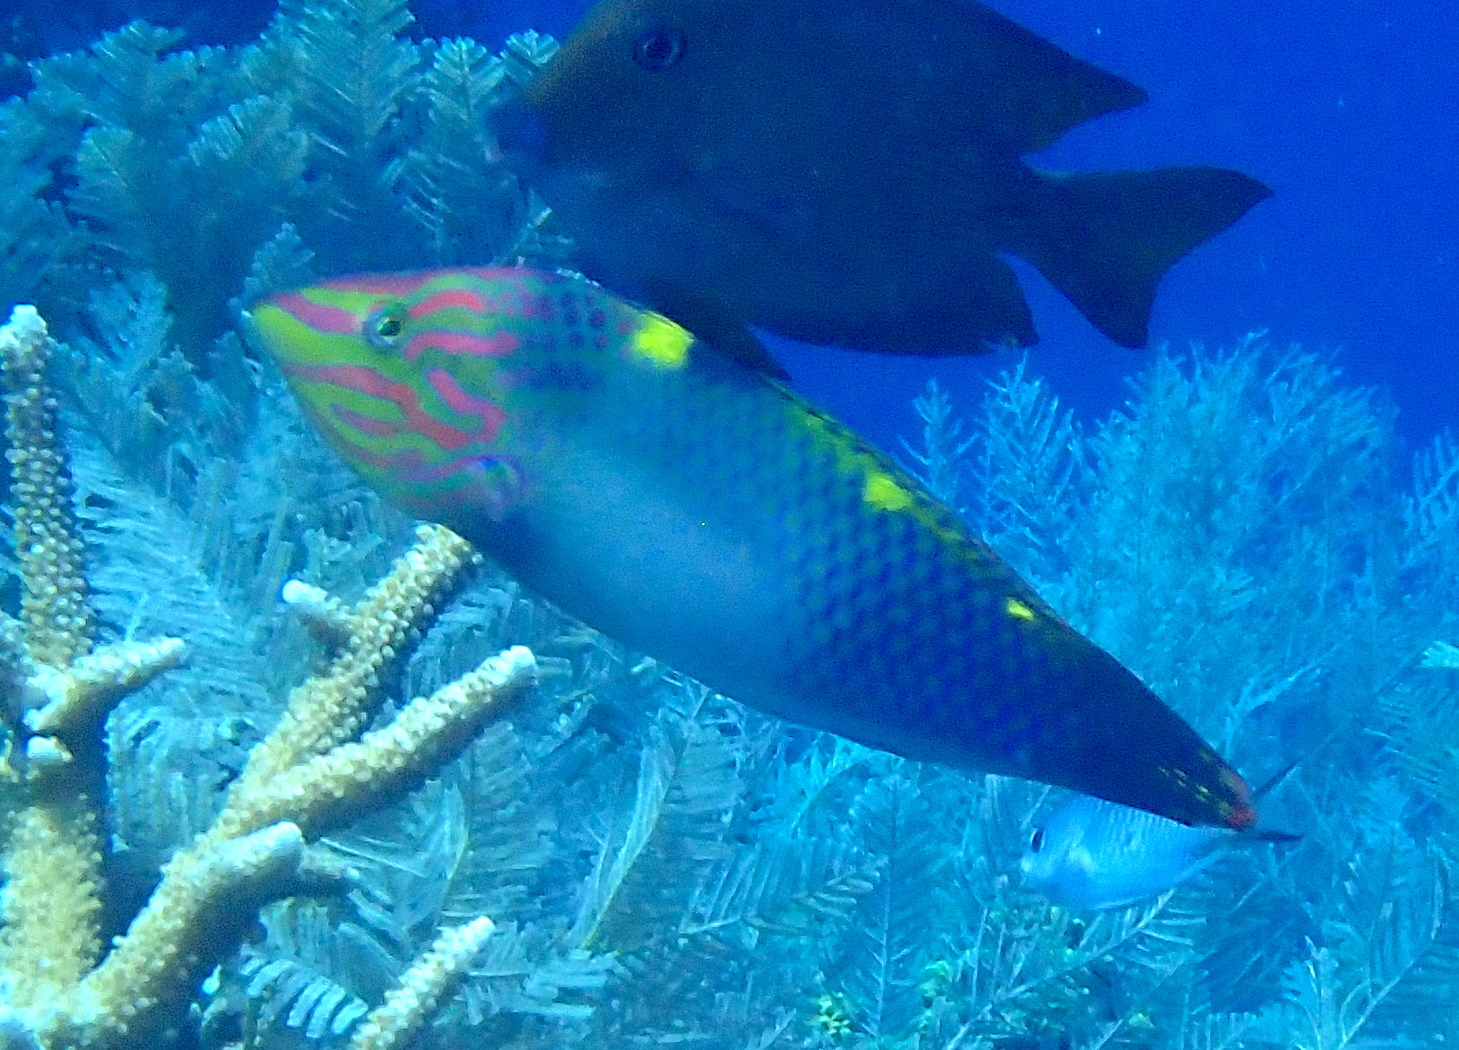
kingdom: Animalia
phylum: Chordata
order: Perciformes
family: Labridae
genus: Halichoeres
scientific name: Halichoeres hortulanus
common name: Checkerboard wrasse
